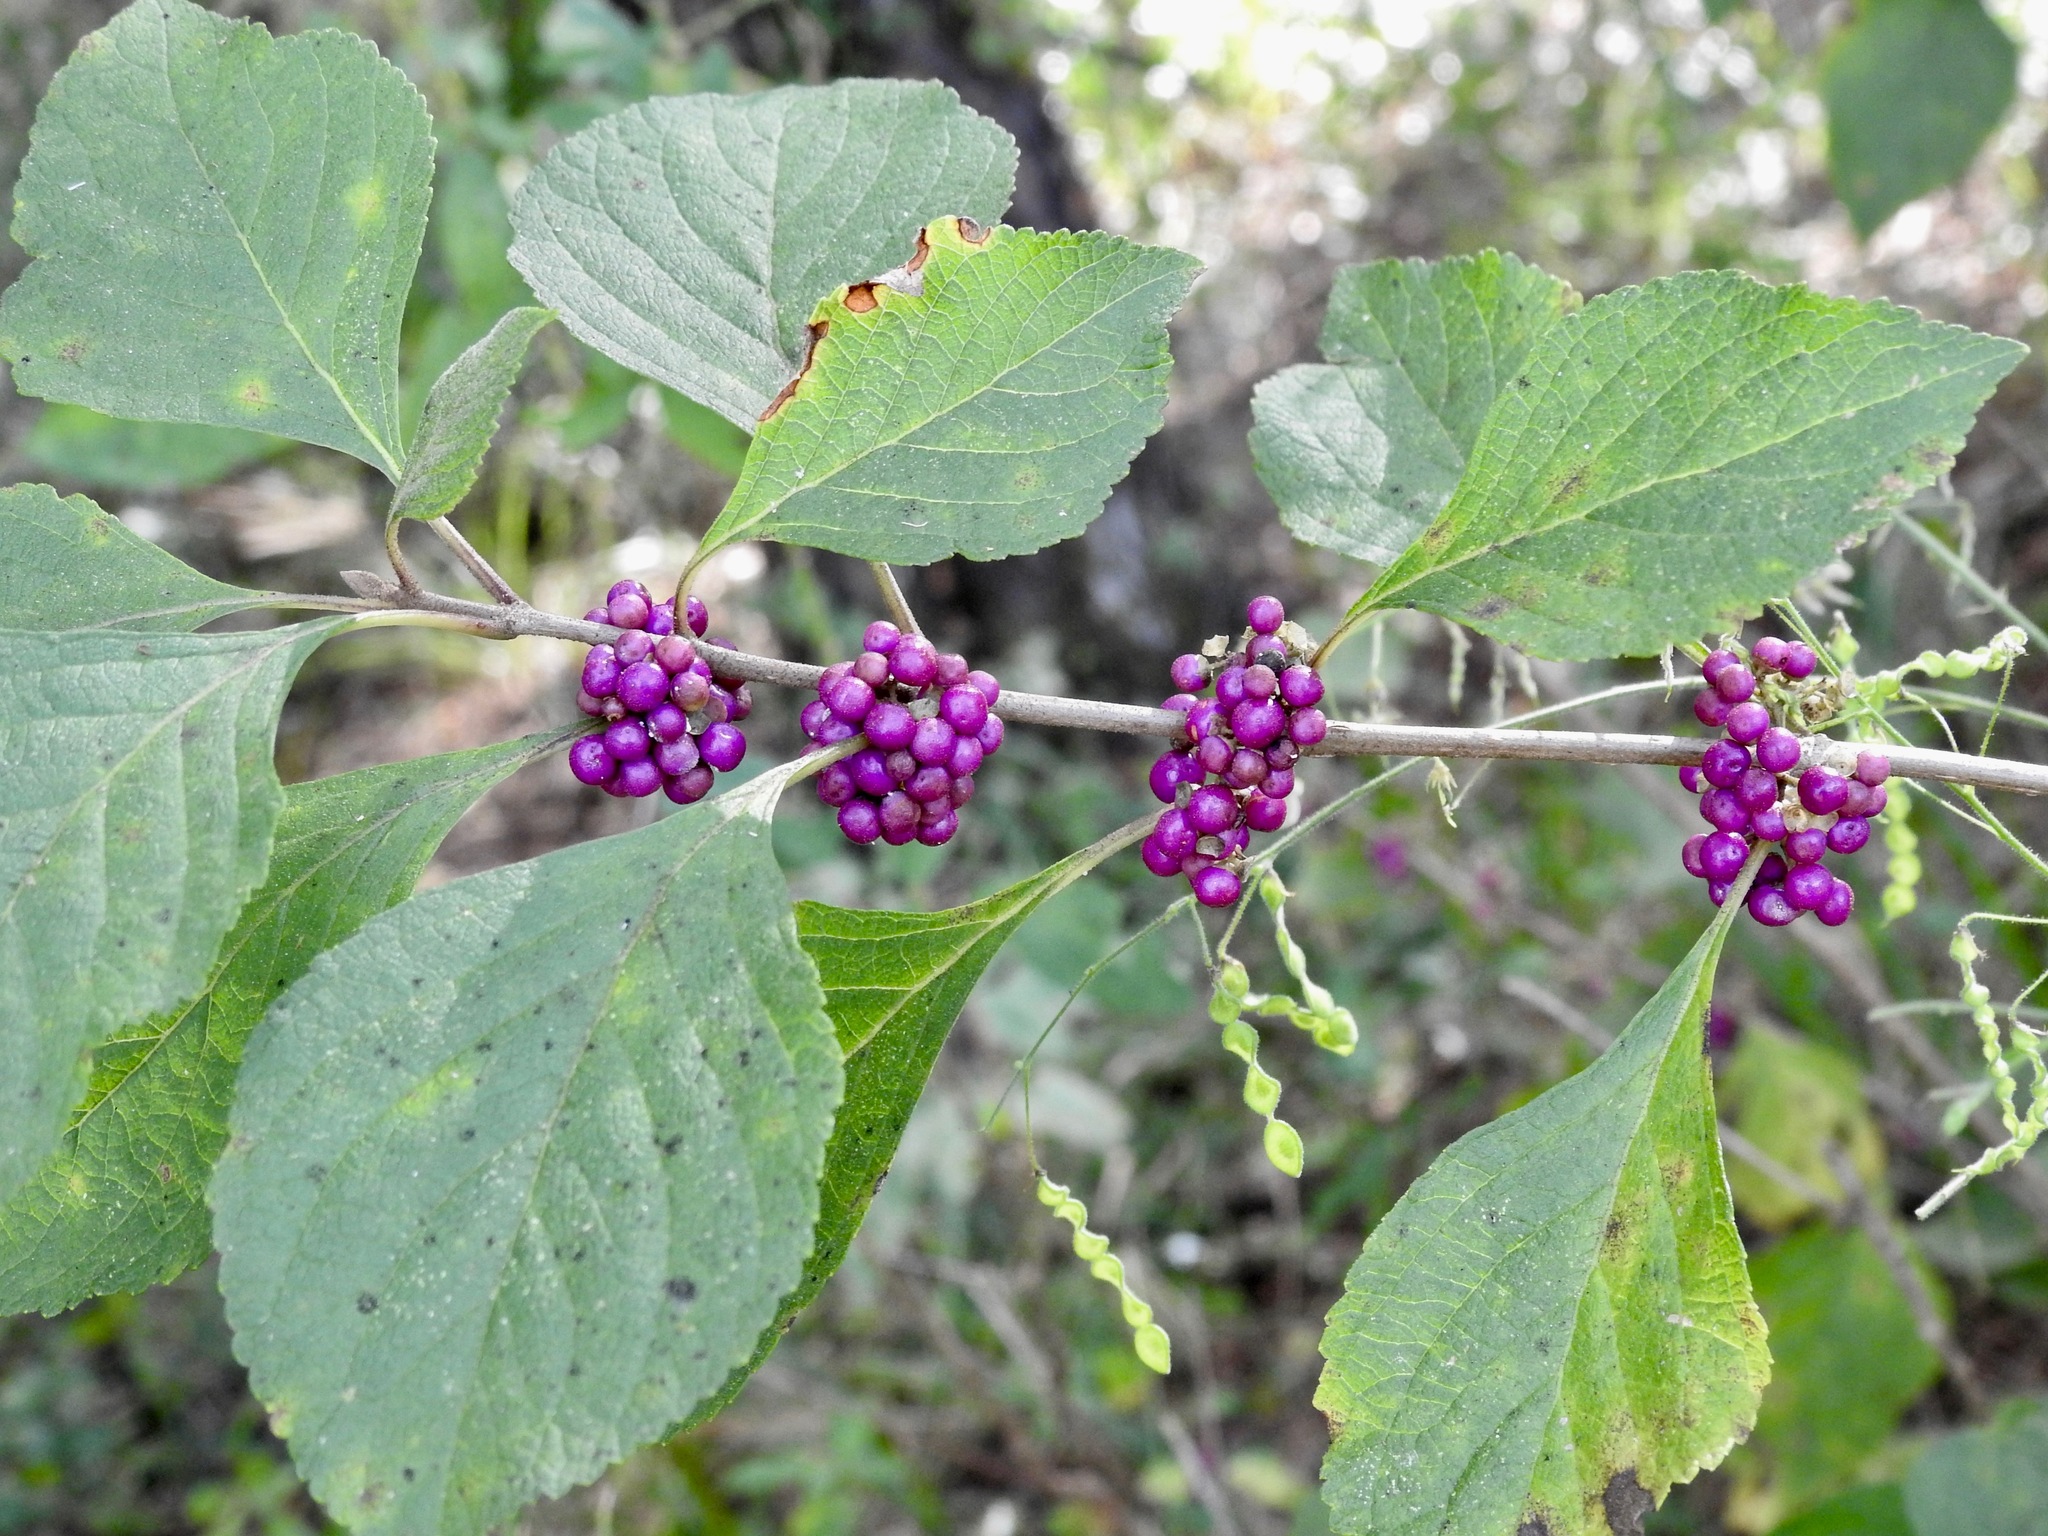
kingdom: Plantae
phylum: Tracheophyta
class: Magnoliopsida
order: Lamiales
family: Lamiaceae
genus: Callicarpa
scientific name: Callicarpa americana
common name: American beautyberry
